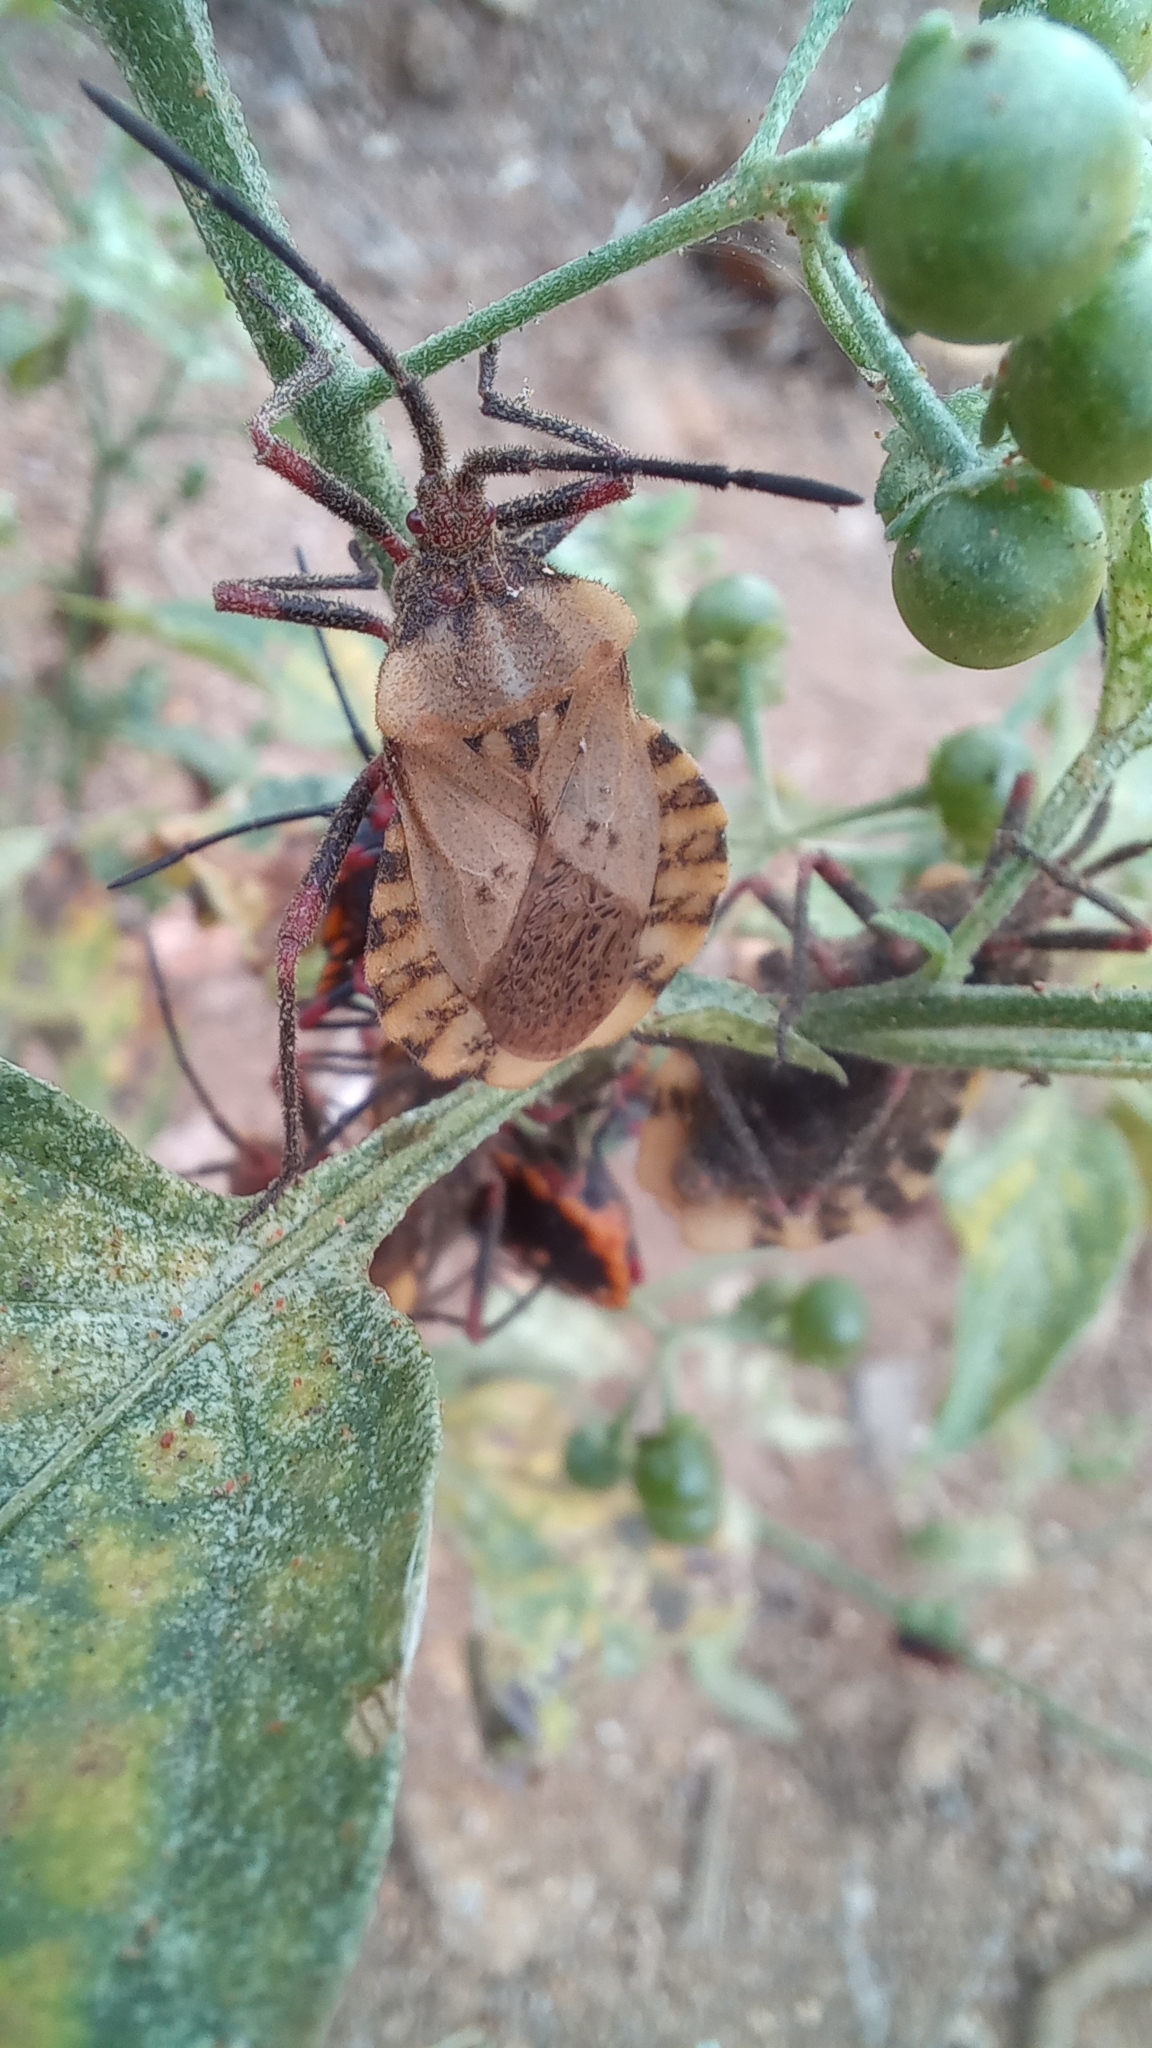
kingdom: Animalia
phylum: Arthropoda
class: Insecta
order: Hemiptera
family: Coreidae
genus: Spartocera
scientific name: Spartocera fusca
